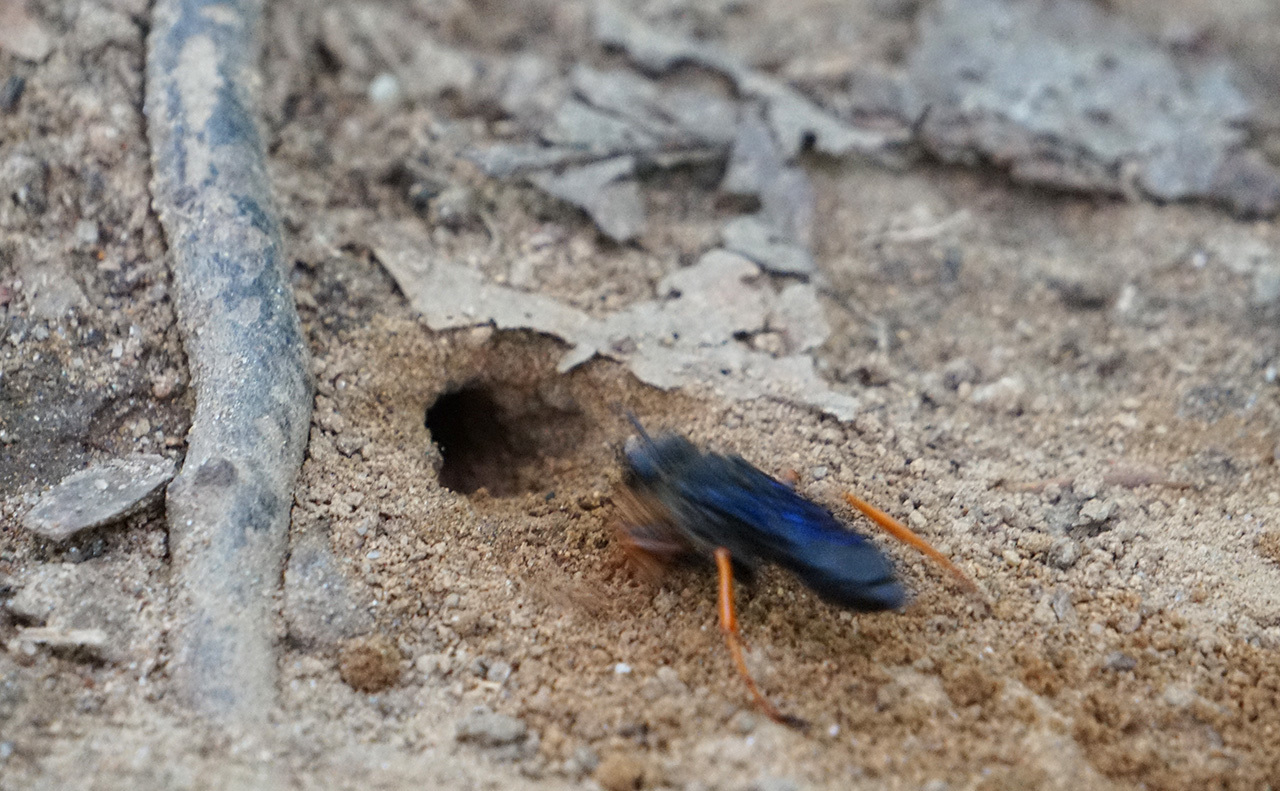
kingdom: Animalia
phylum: Arthropoda
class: Insecta
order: Hymenoptera
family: Sphecidae
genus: Sphex
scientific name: Sphex nudus
